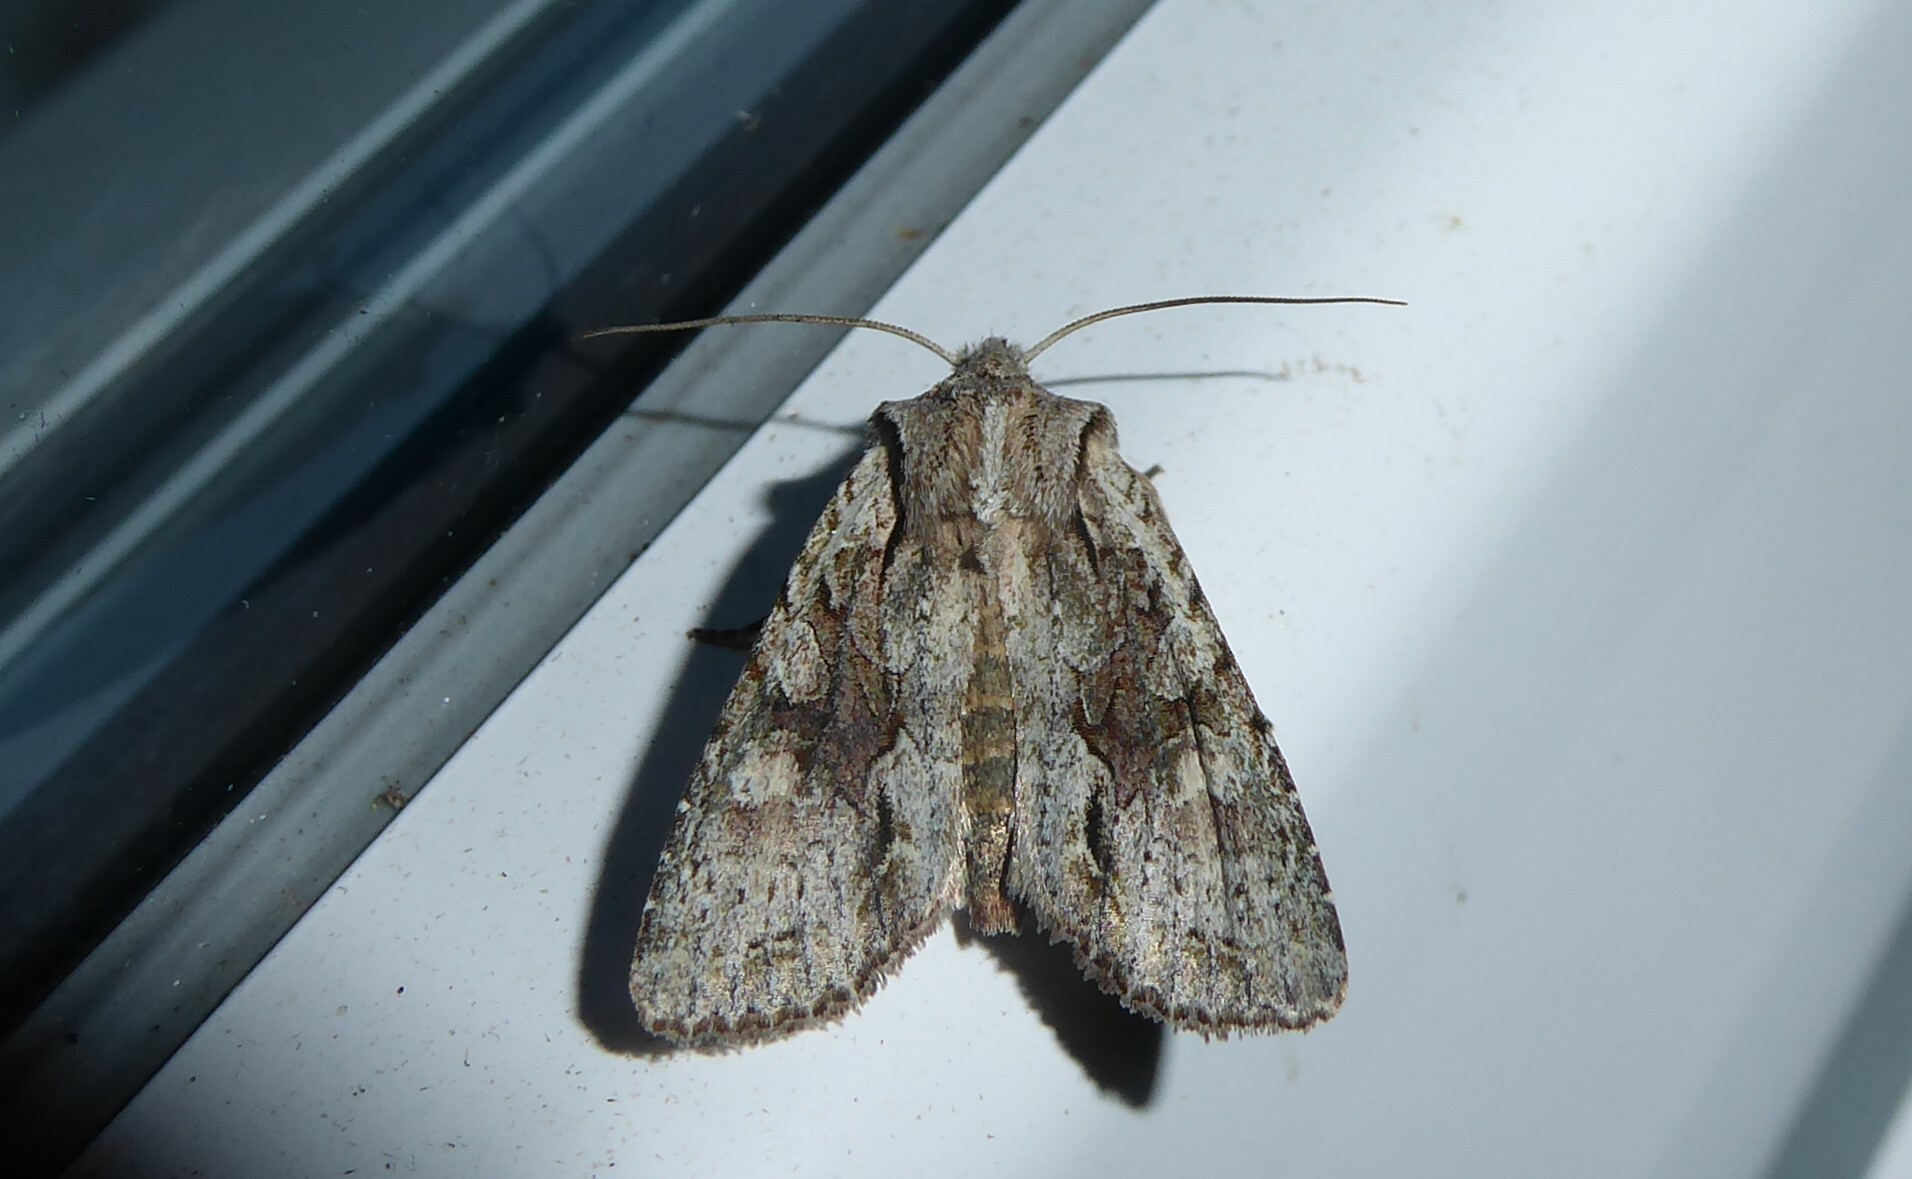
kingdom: Animalia
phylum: Arthropoda
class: Insecta
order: Lepidoptera
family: Noctuidae
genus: Ichneutica
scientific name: Ichneutica mutans
